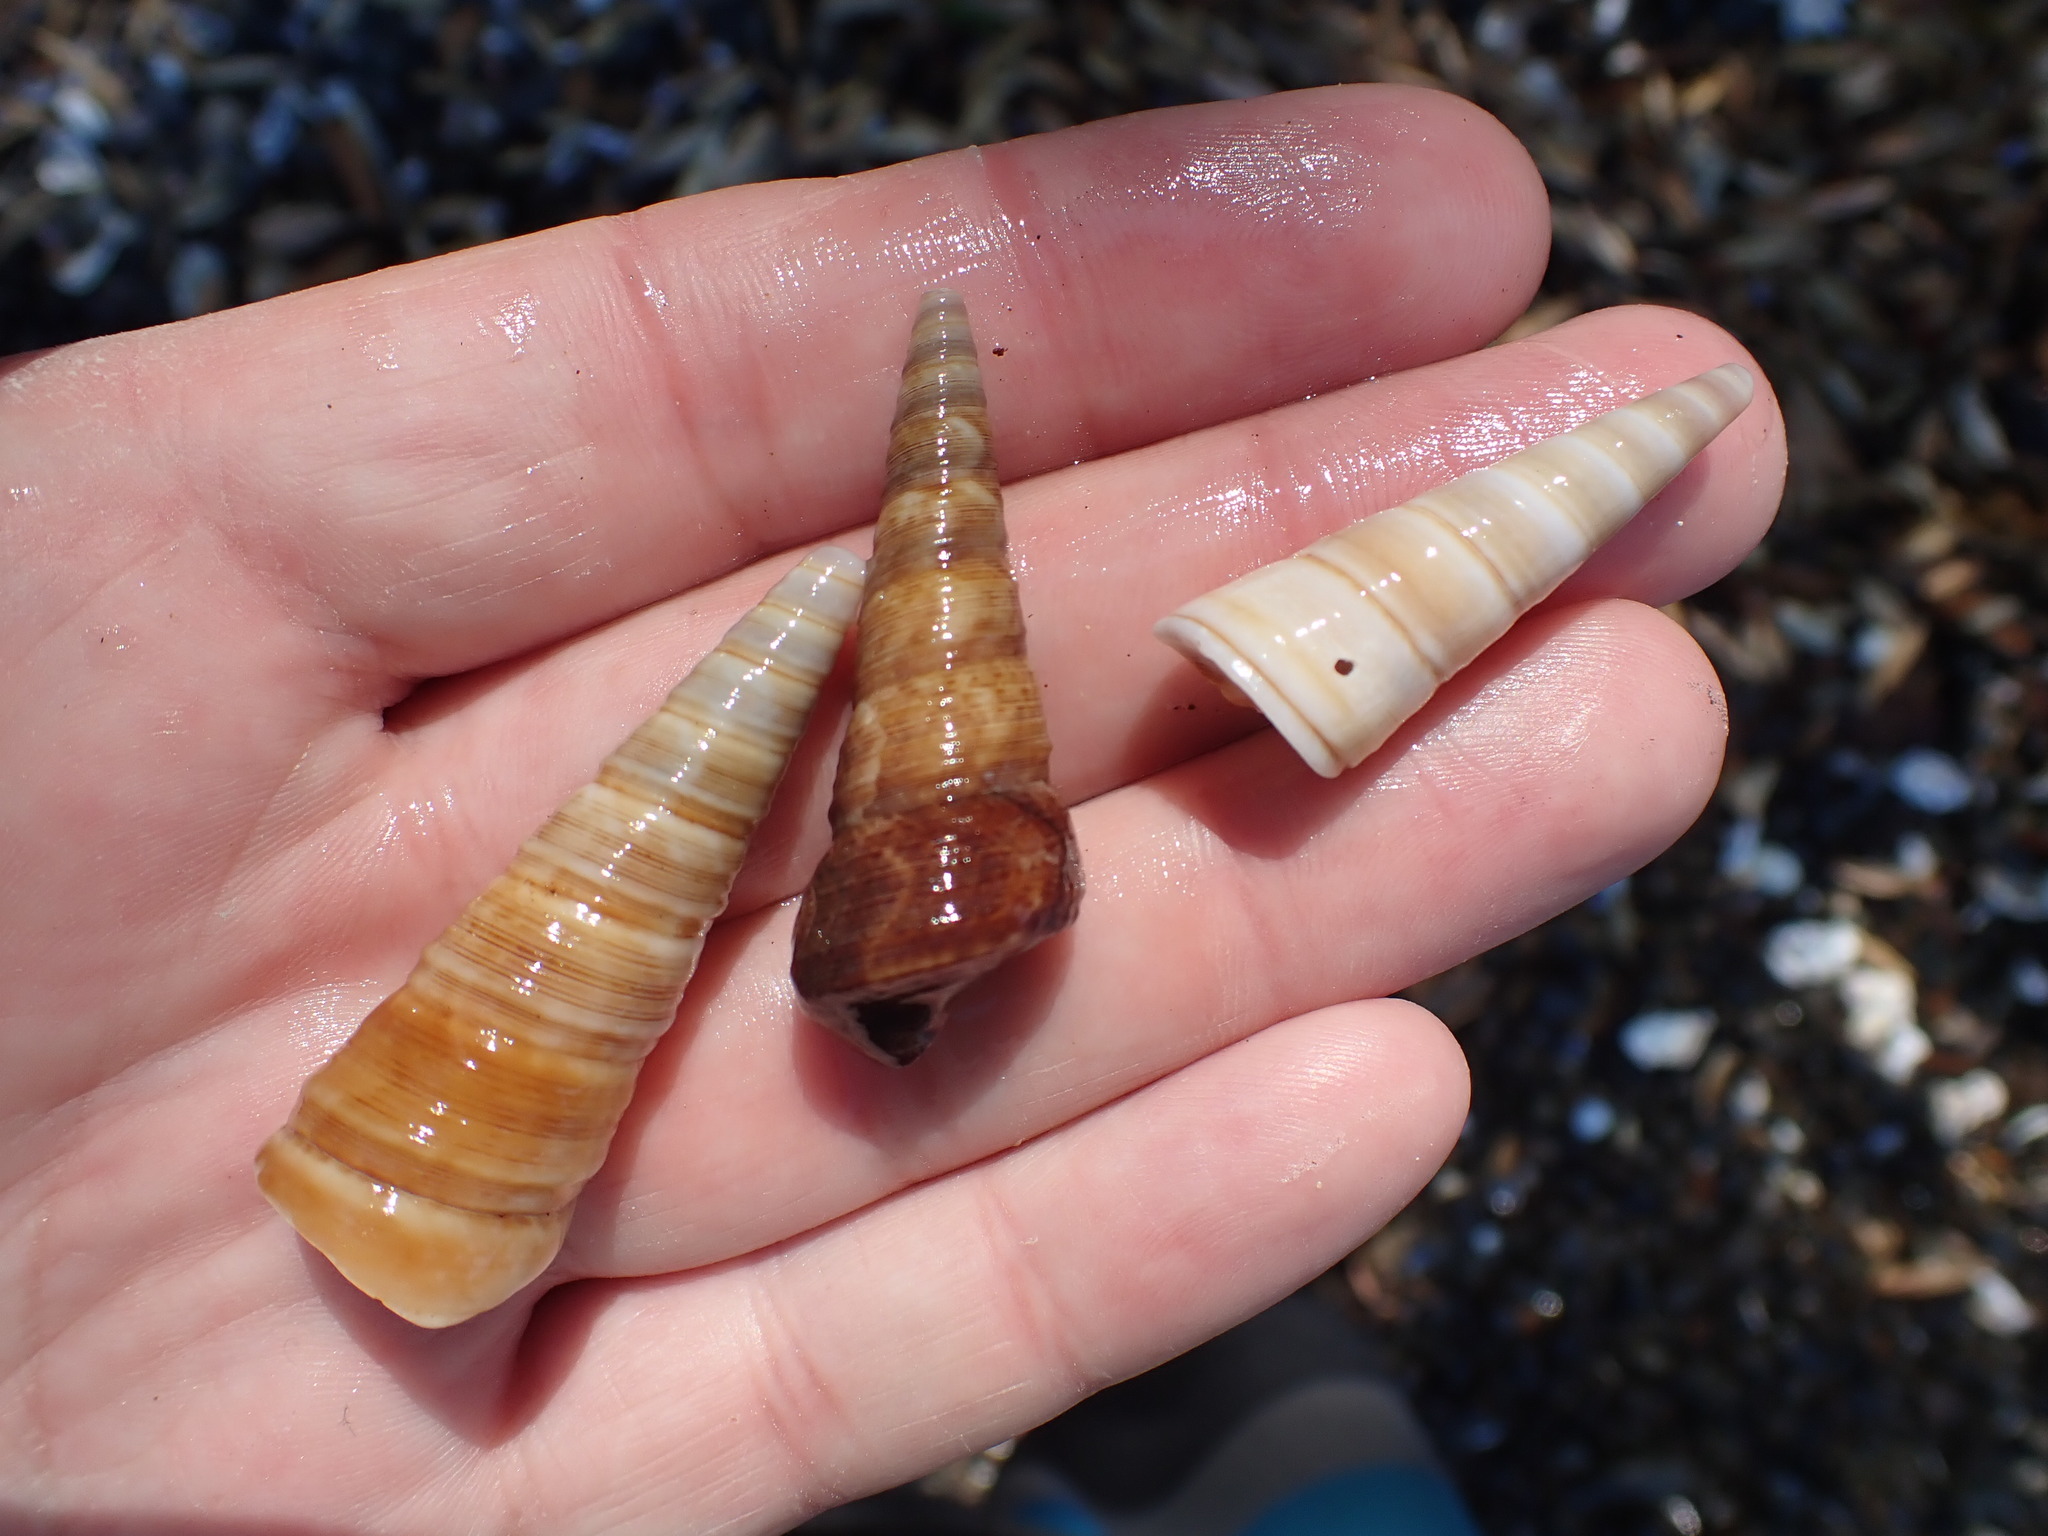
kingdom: Animalia
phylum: Mollusca
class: Gastropoda
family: Turritellidae
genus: Maoricolpus
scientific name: Maoricolpus roseus
